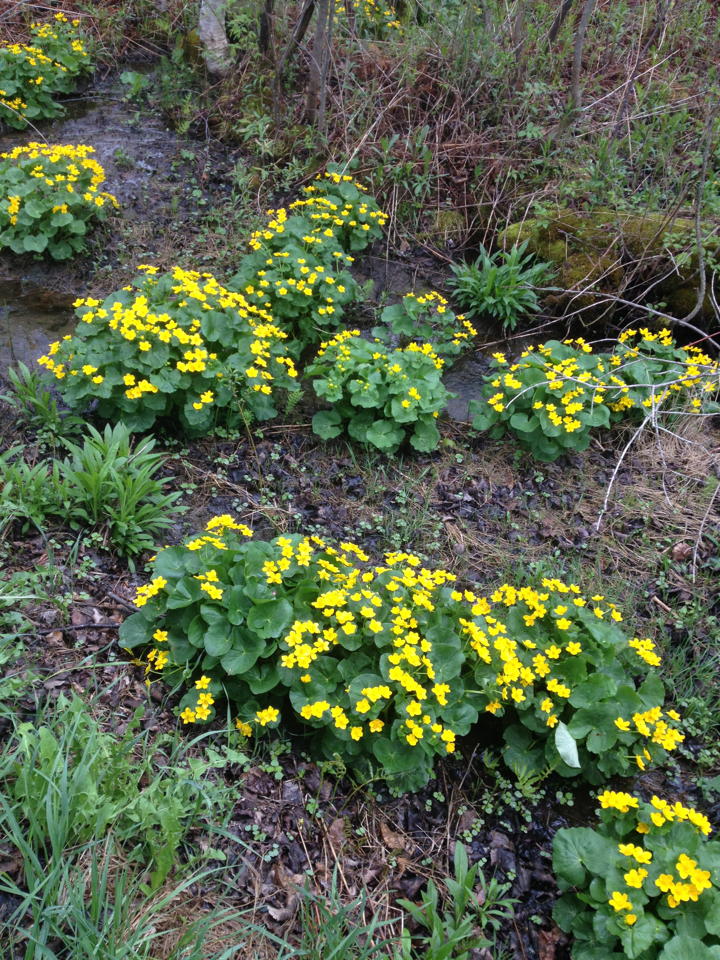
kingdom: Plantae
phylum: Tracheophyta
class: Magnoliopsida
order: Ranunculales
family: Ranunculaceae
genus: Caltha
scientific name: Caltha palustris
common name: Marsh marigold
